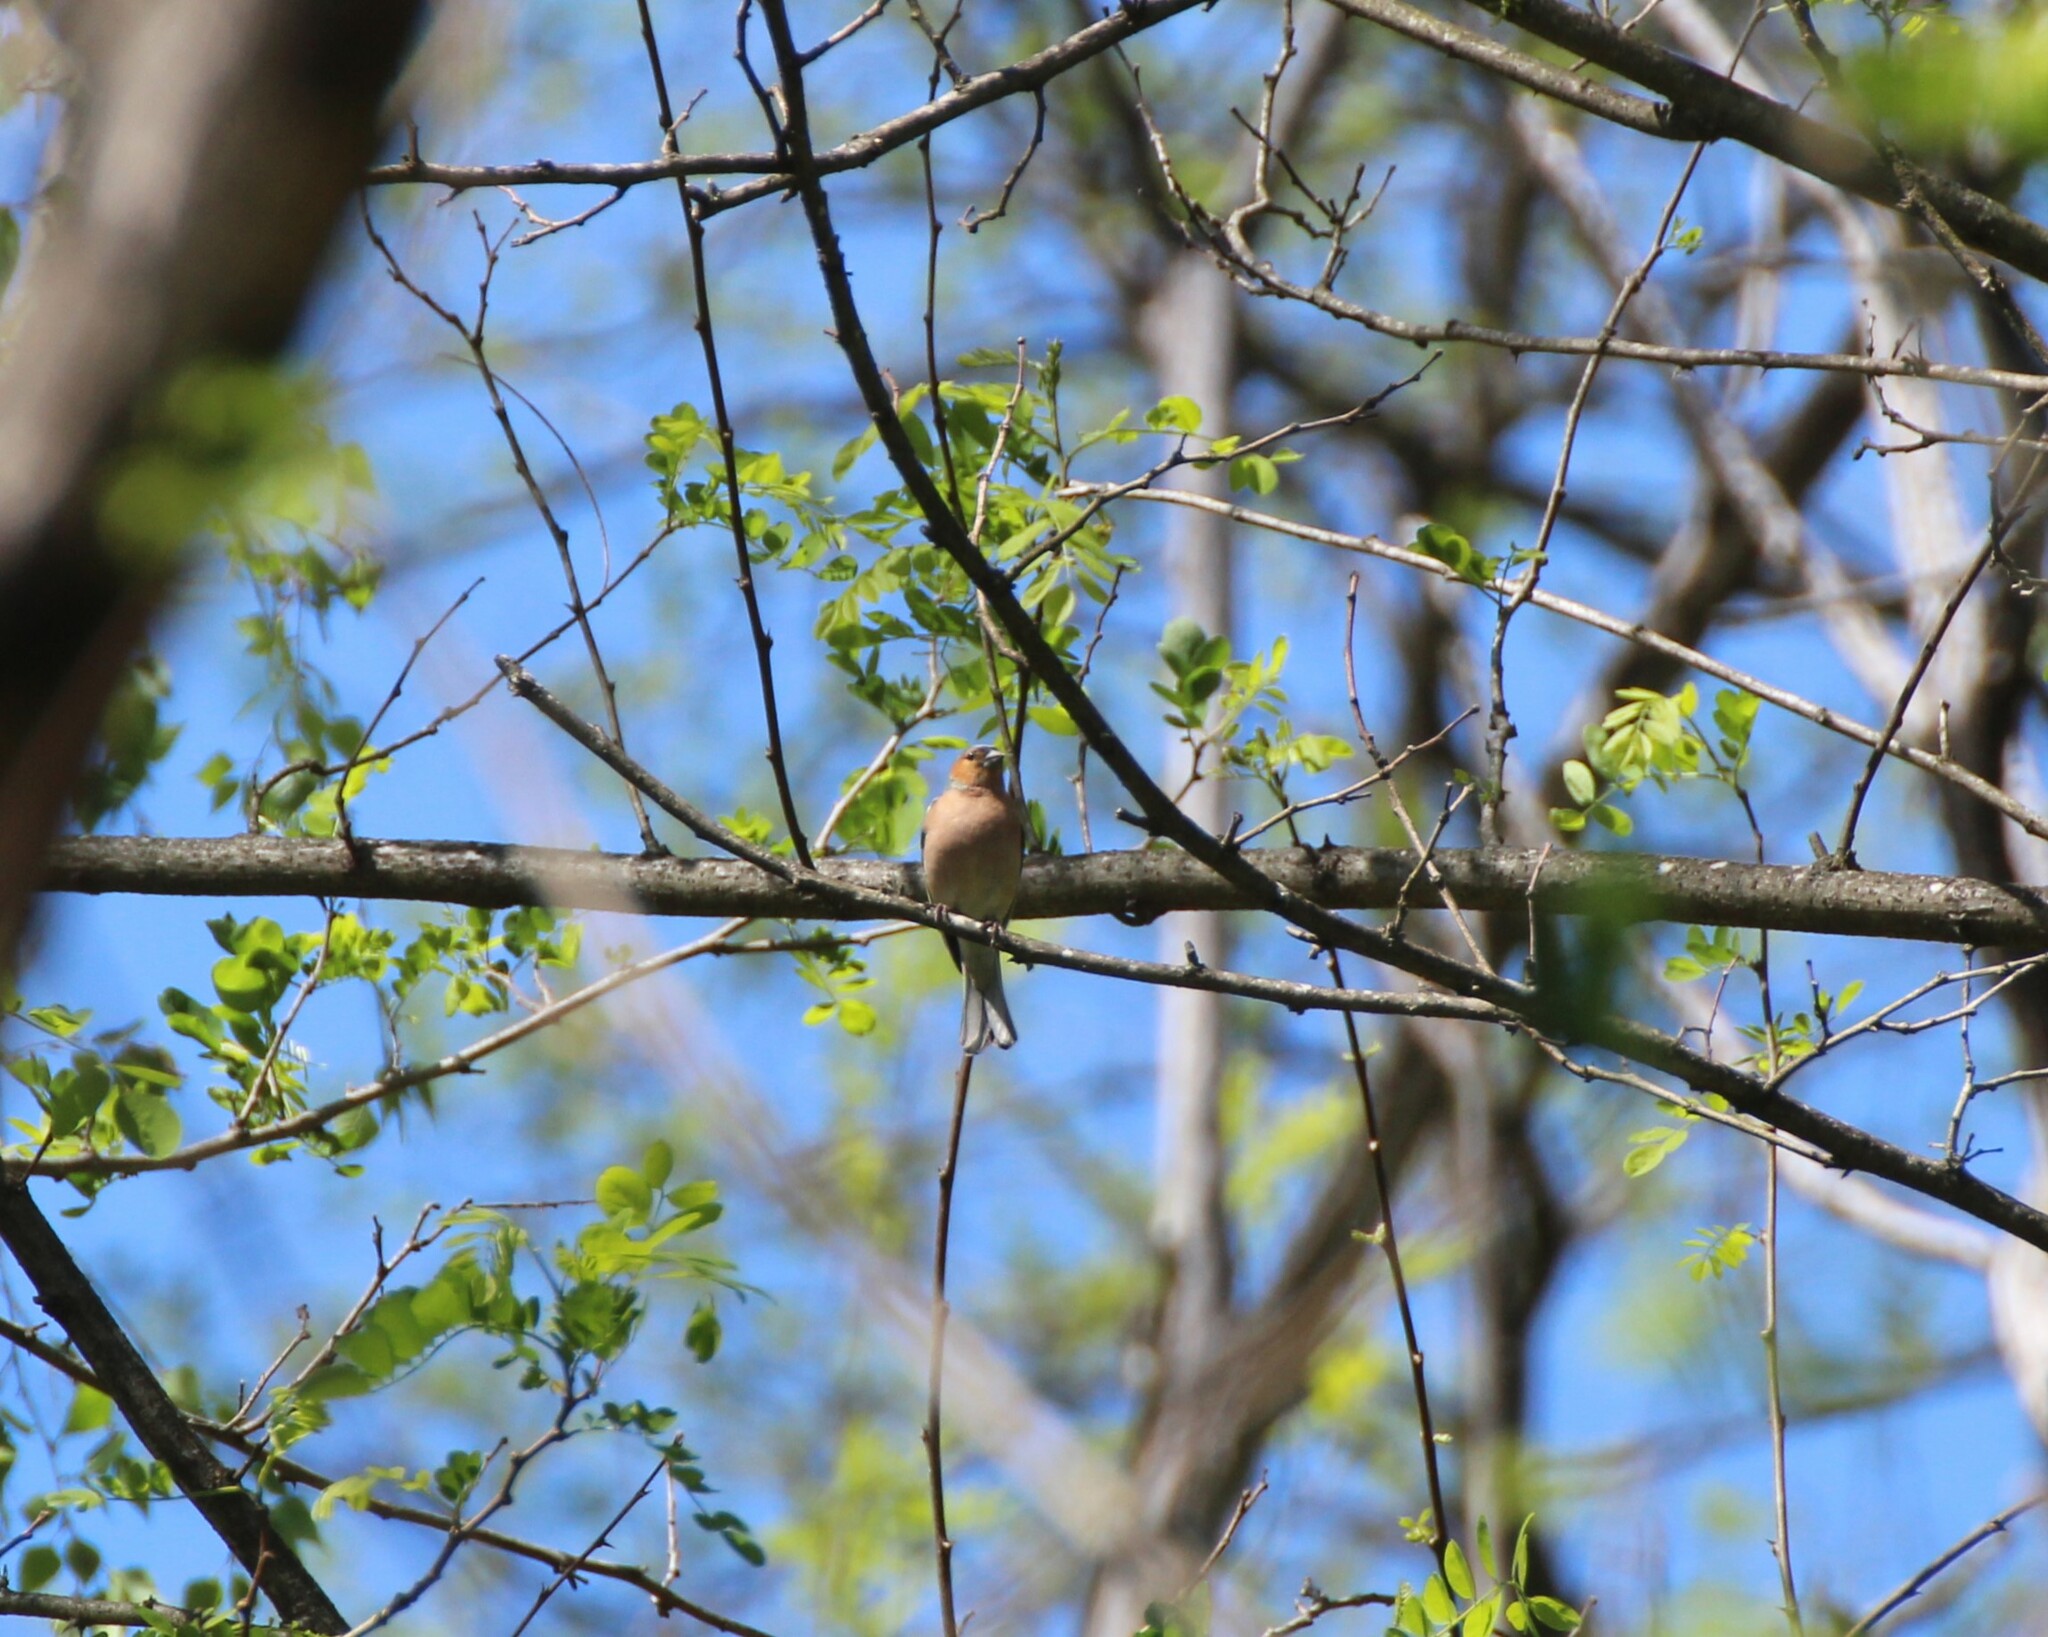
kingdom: Animalia
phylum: Chordata
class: Aves
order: Passeriformes
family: Fringillidae
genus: Fringilla
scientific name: Fringilla coelebs
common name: Common chaffinch
